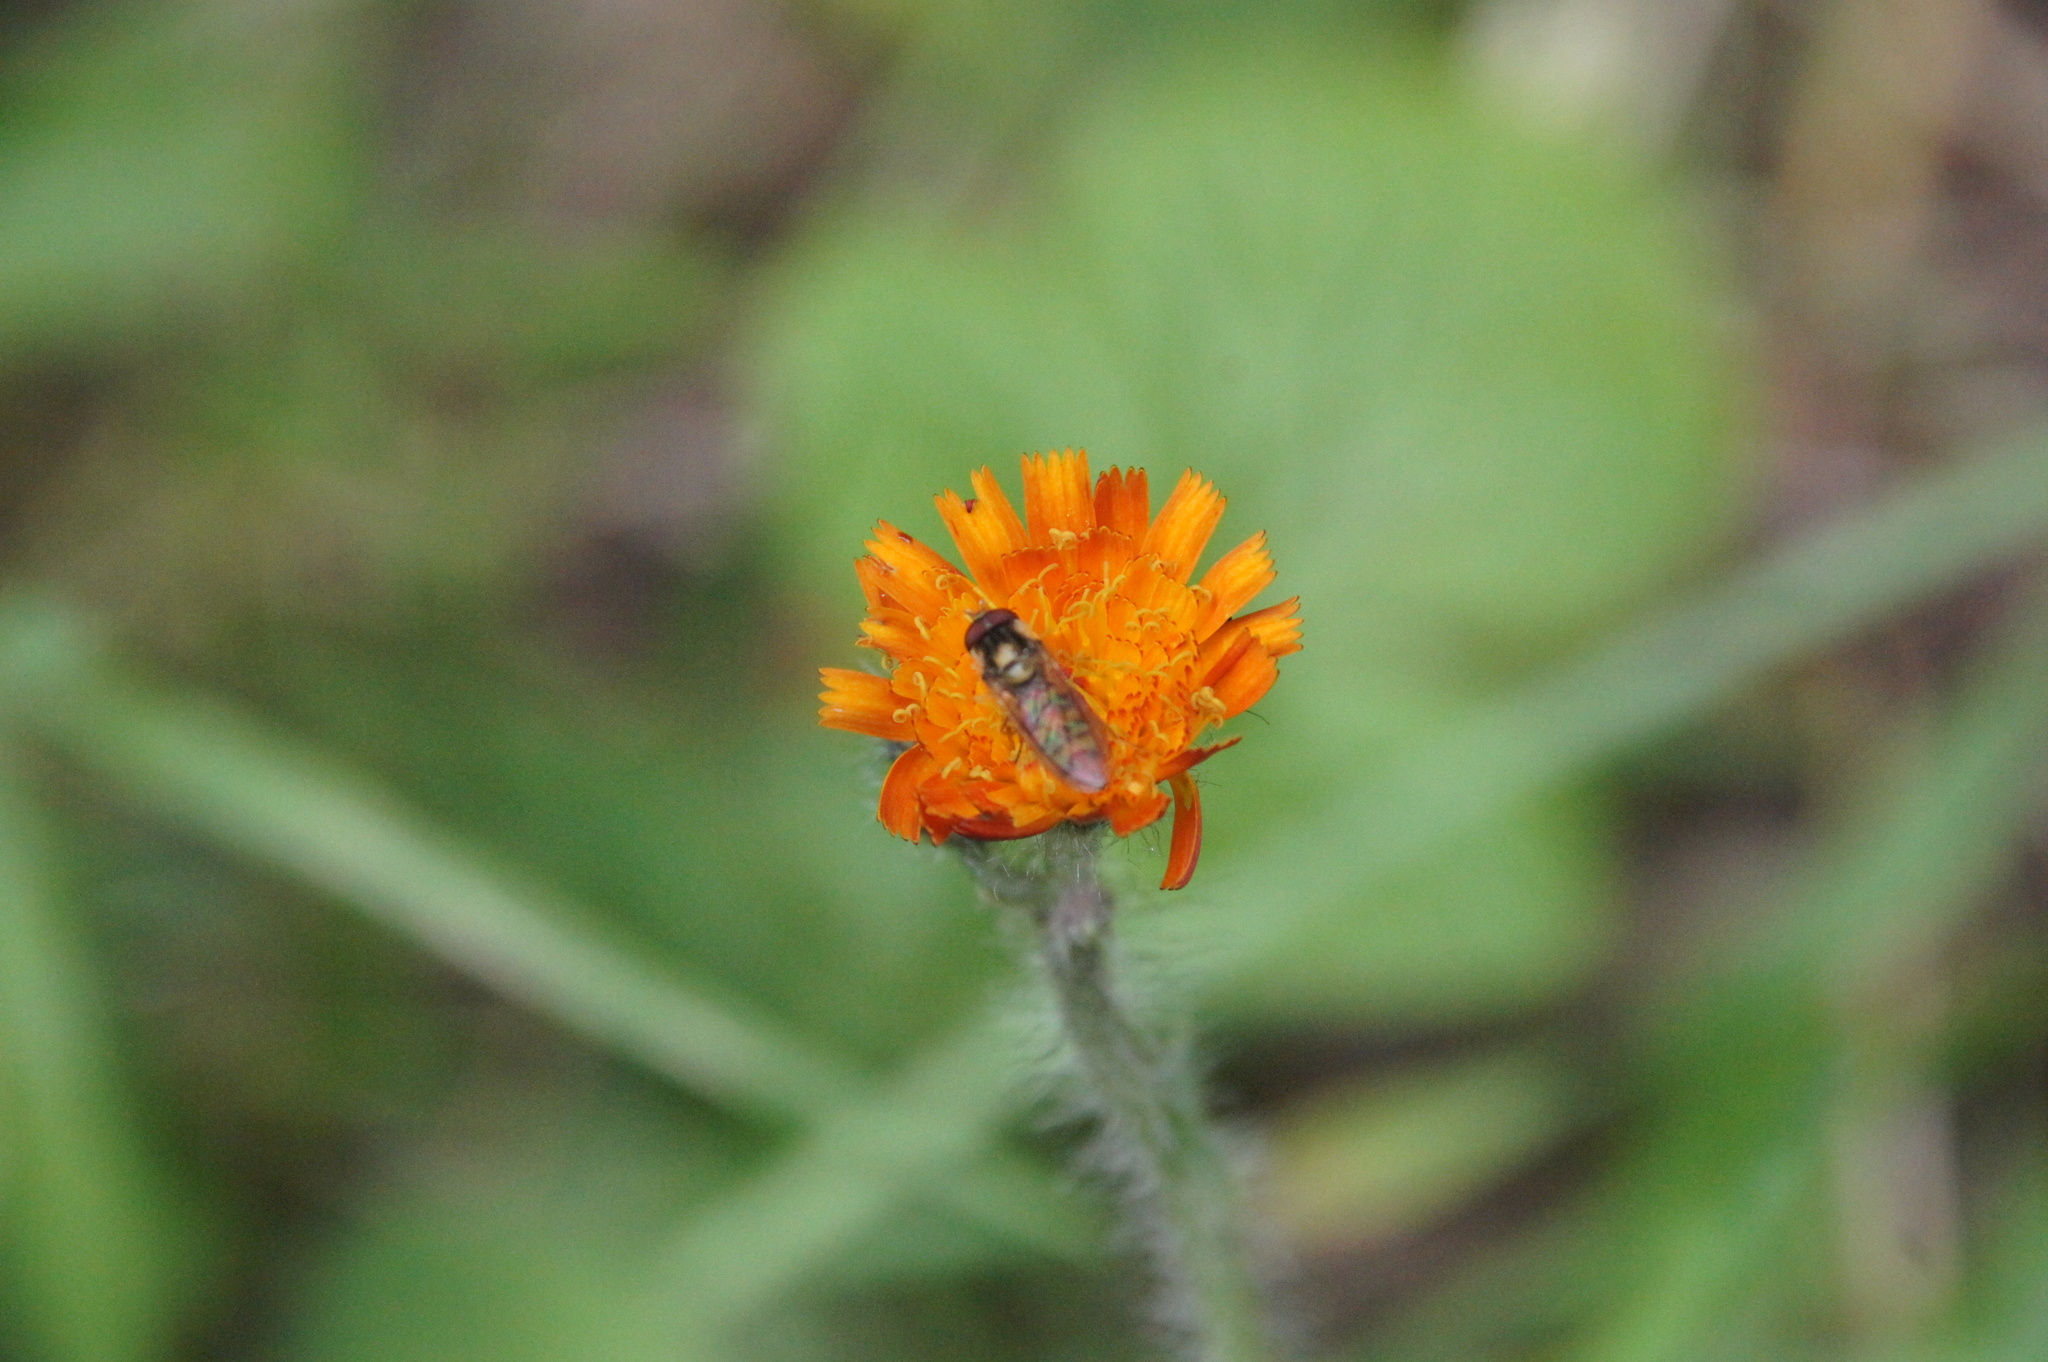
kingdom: Animalia
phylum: Arthropoda
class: Insecta
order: Diptera
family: Syrphidae
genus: Episyrphus
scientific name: Episyrphus balteatus
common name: Marmalade hoverfly
